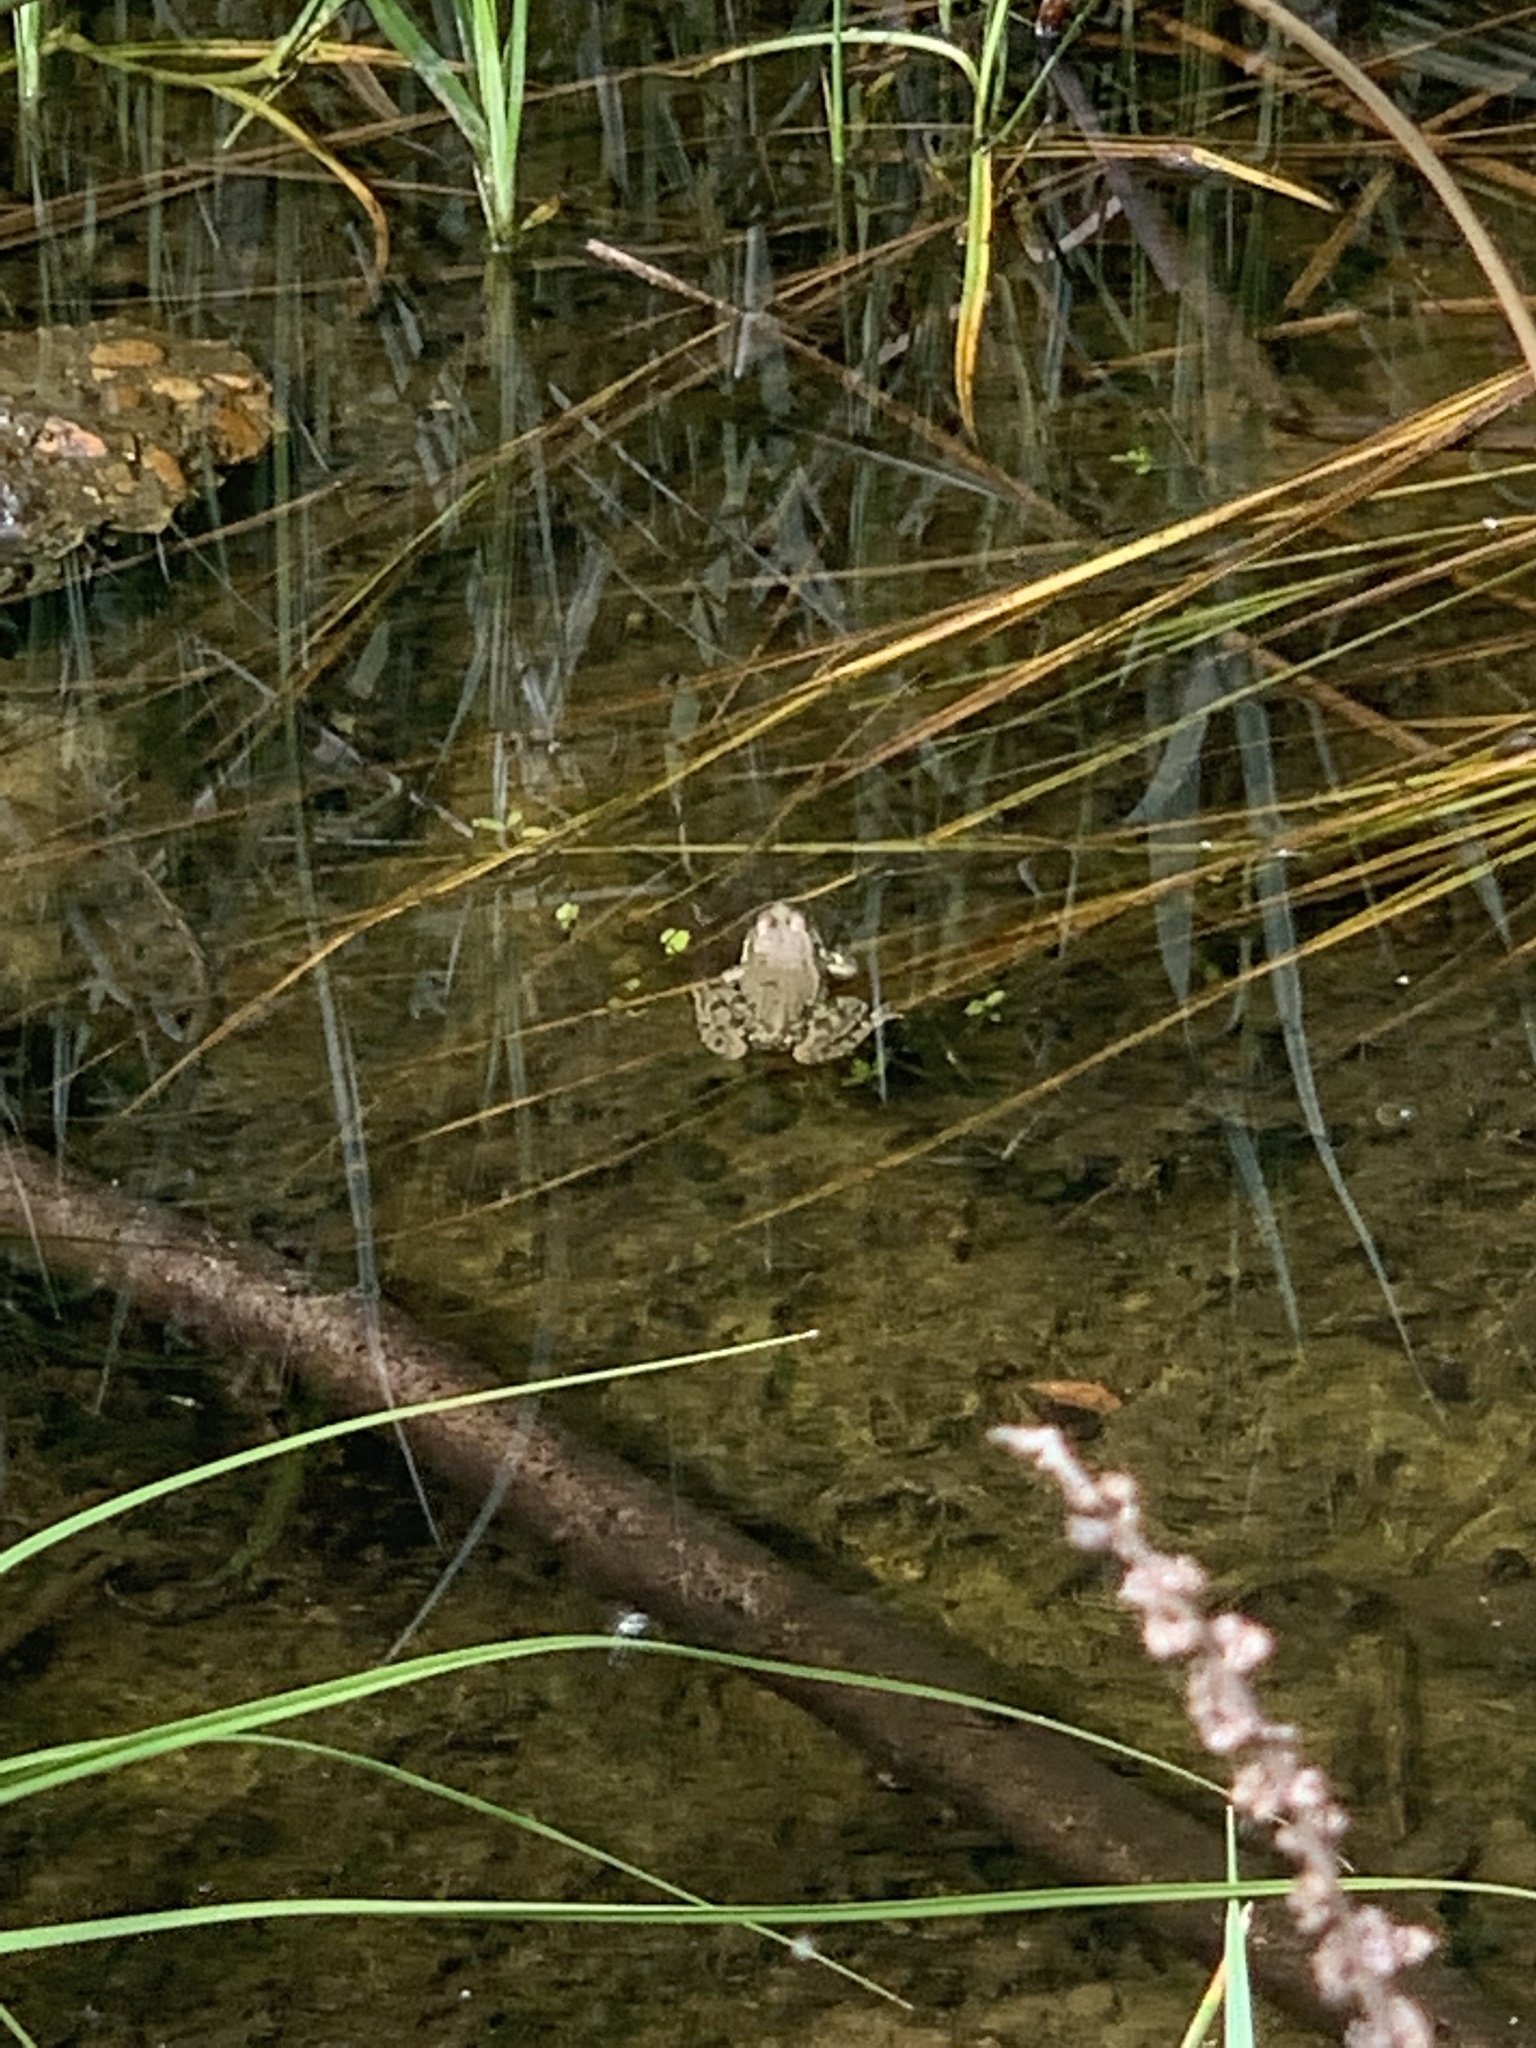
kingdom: Animalia
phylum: Chordata
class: Amphibia
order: Anura
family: Ranidae
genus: Pelophylax
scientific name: Pelophylax ridibundus
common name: Marsh frog
